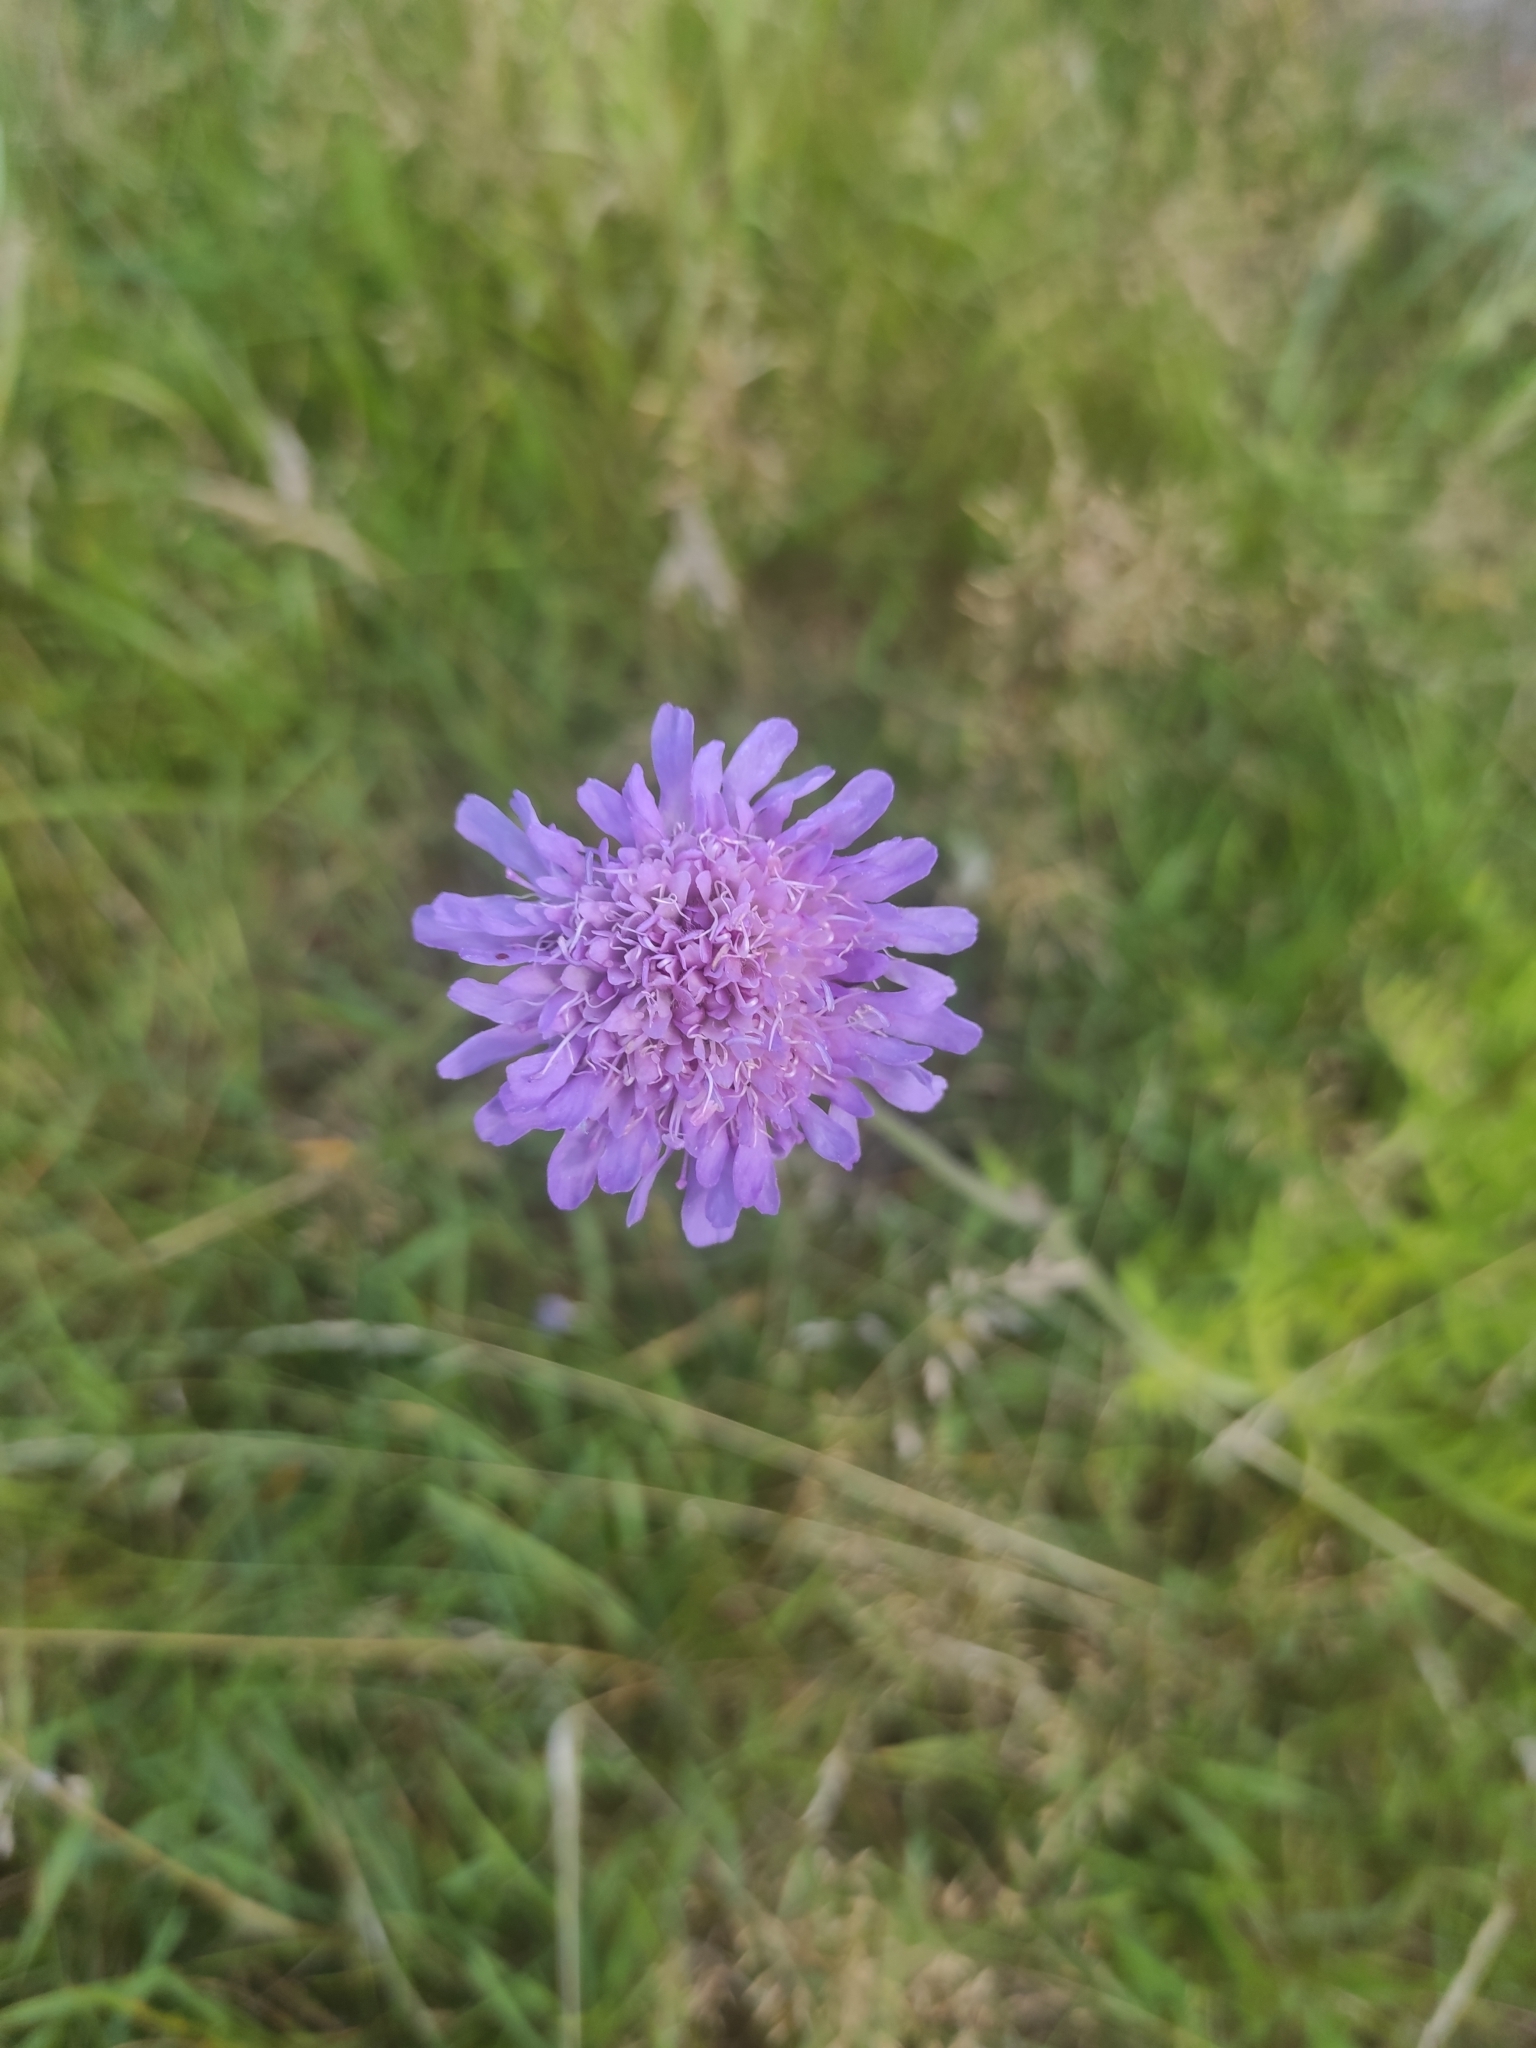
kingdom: Plantae
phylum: Tracheophyta
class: Magnoliopsida
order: Dipsacales
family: Caprifoliaceae
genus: Knautia
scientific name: Knautia arvensis
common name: Field scabiosa
